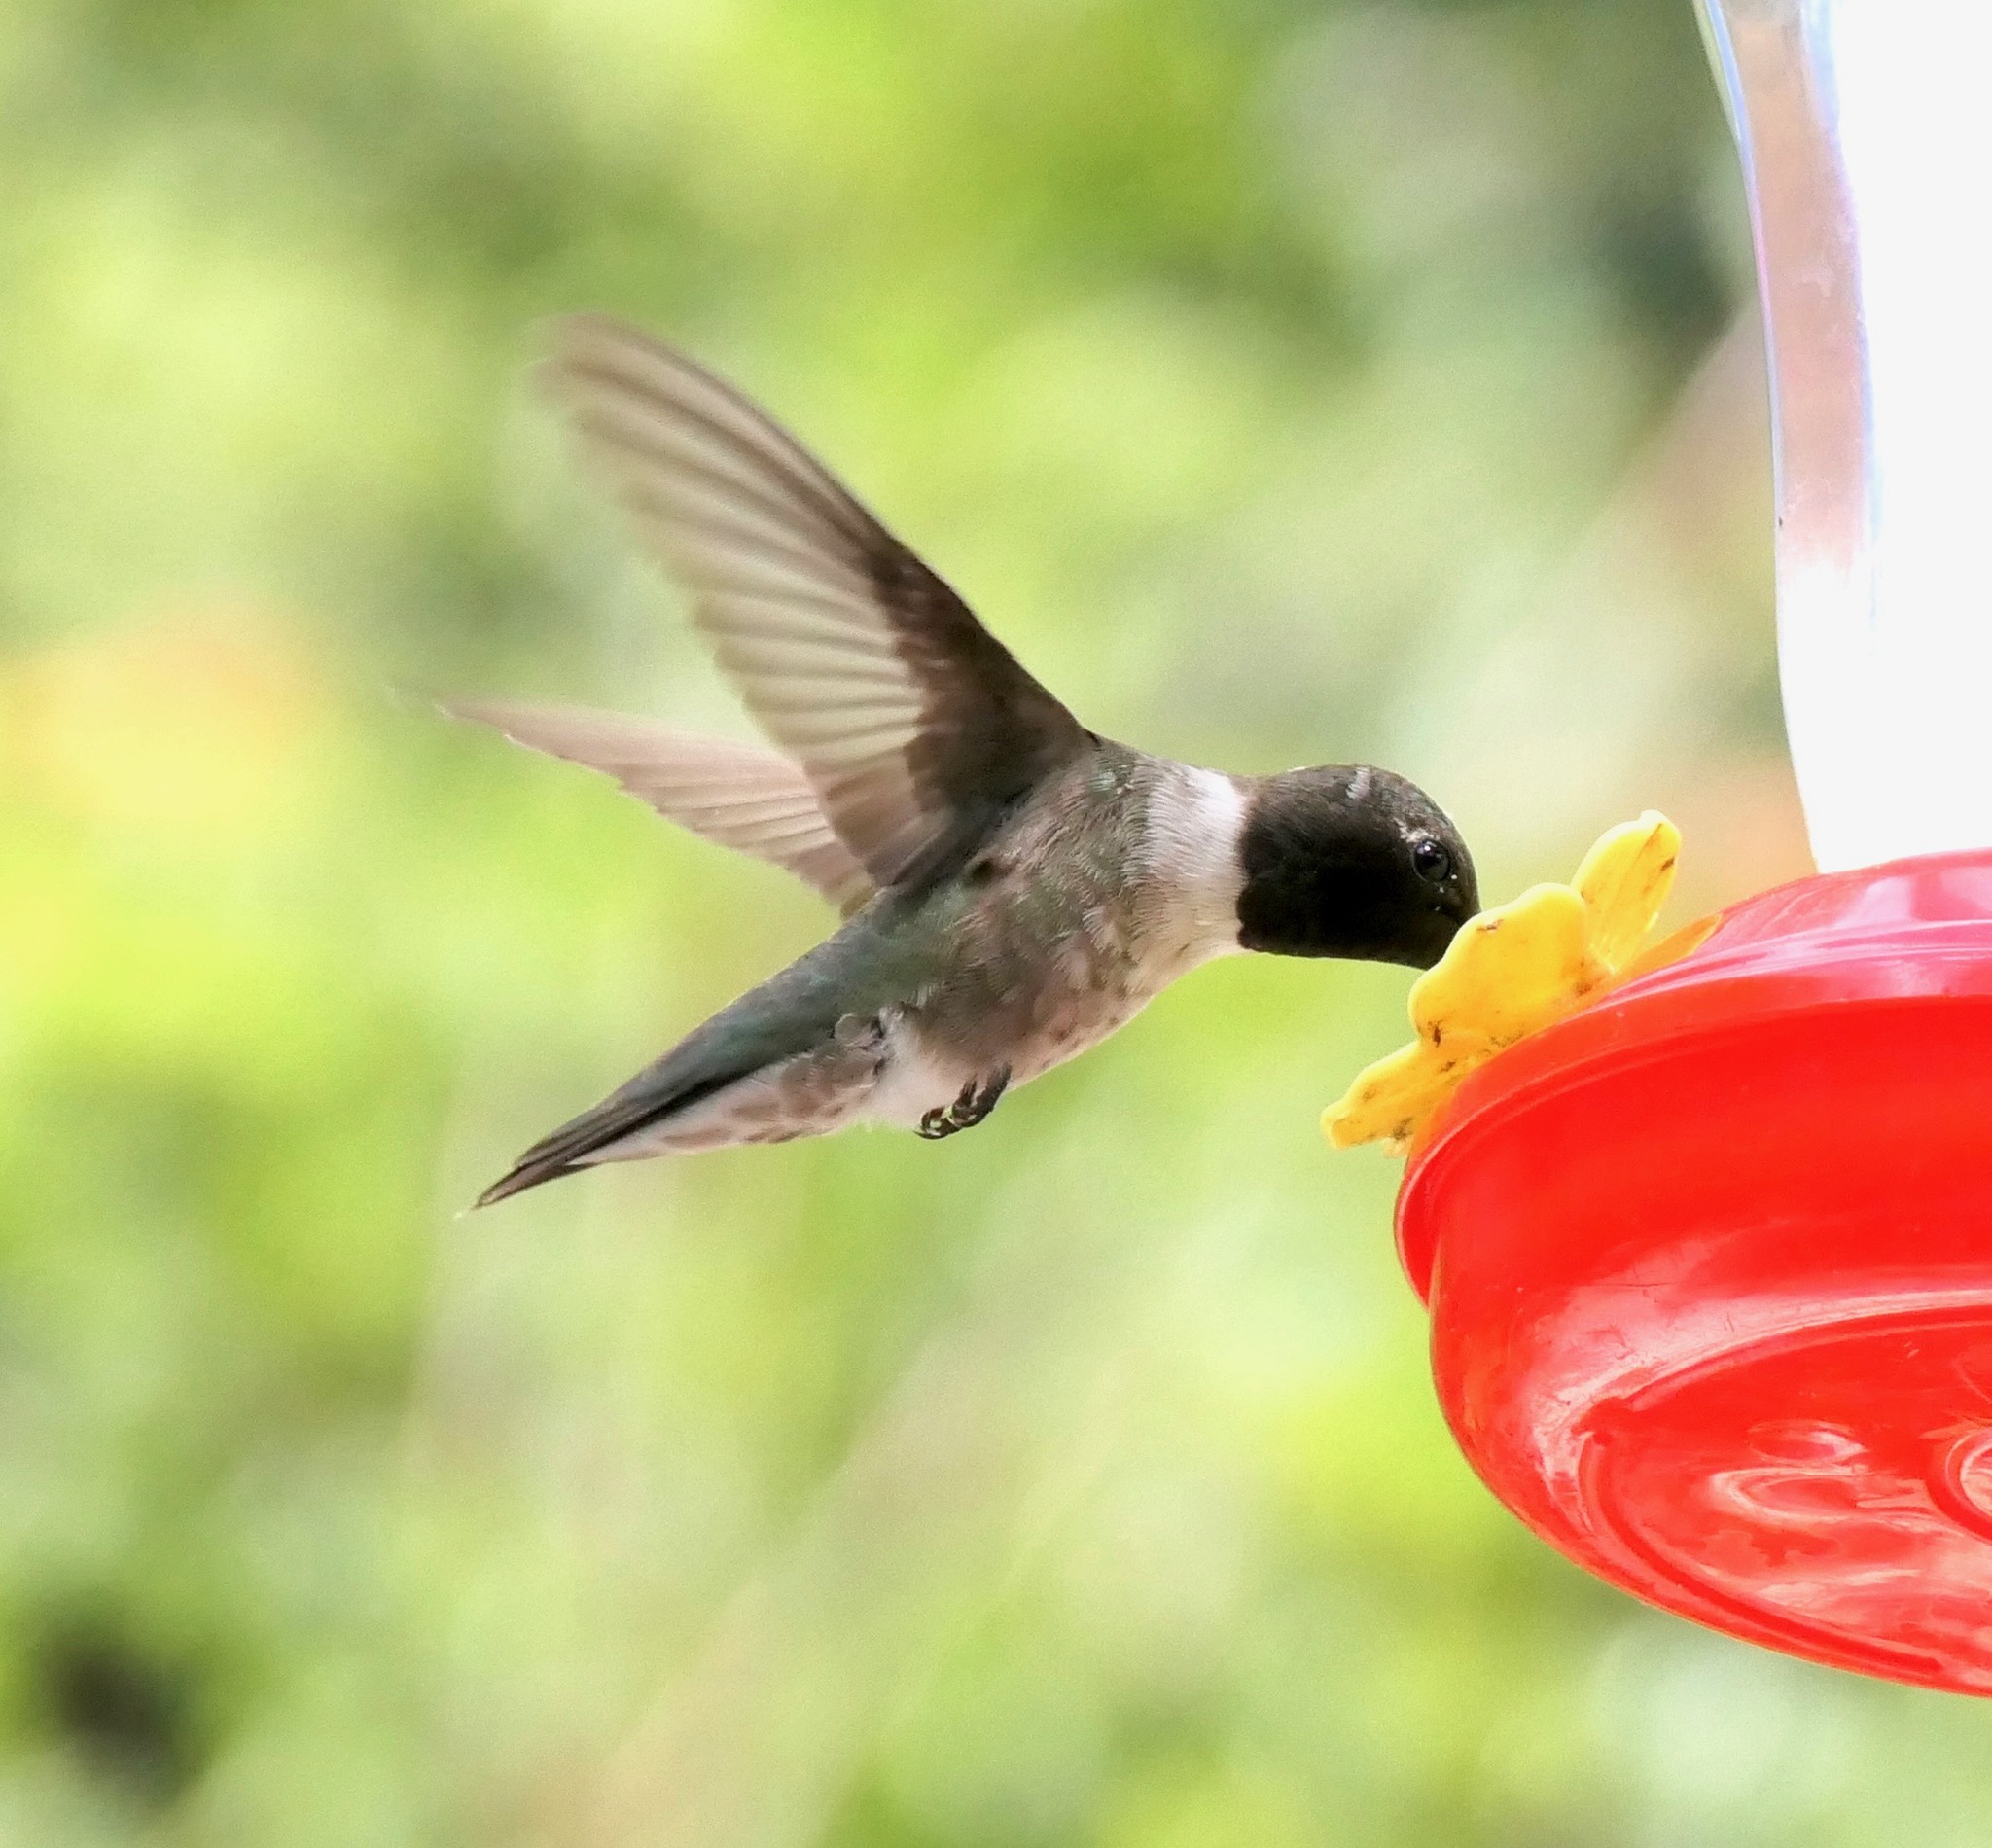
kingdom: Animalia
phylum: Chordata
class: Aves
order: Apodiformes
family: Trochilidae
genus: Archilochus
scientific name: Archilochus alexandri
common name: Black-chinned hummingbird
